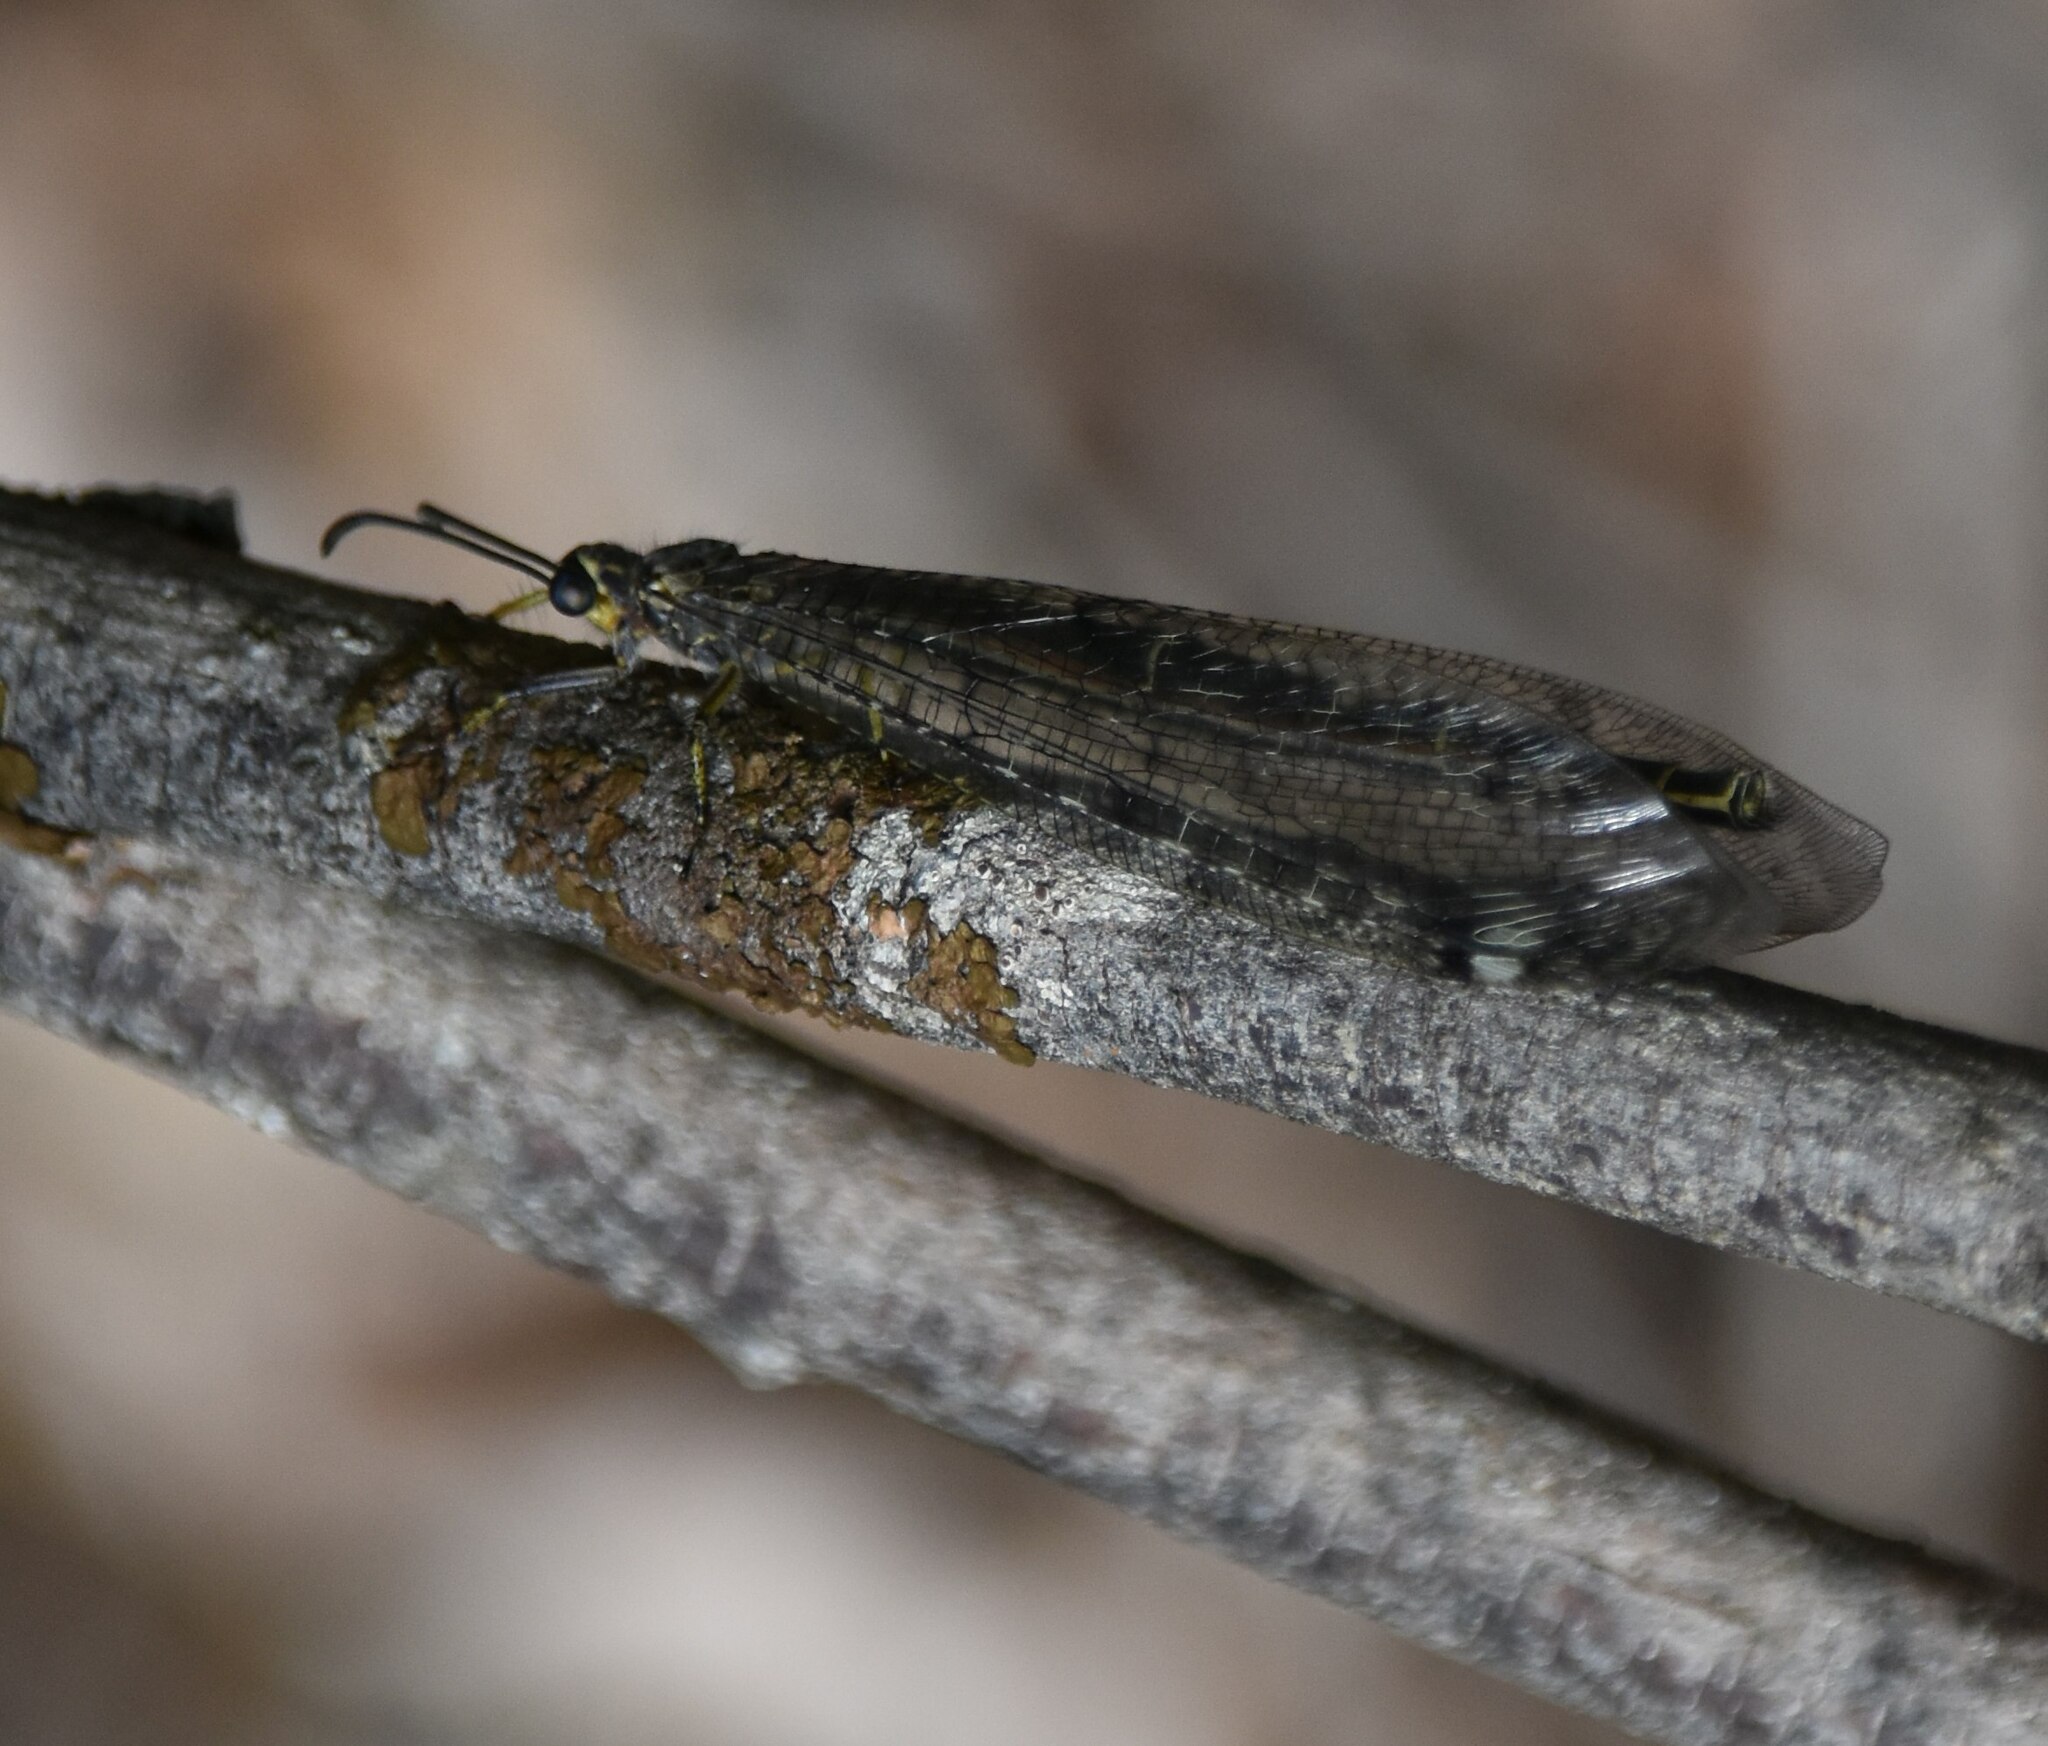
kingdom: Animalia
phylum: Arthropoda
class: Insecta
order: Neuroptera
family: Myrmeleontidae
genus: Distoleon
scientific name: Distoleon tetragrammicus
